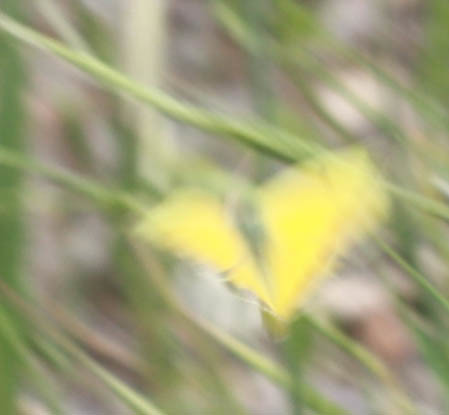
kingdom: Animalia
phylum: Arthropoda
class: Insecta
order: Lepidoptera
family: Pieridae
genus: Colias
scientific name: Colias eurytheme
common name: Alfalfa butterfly
